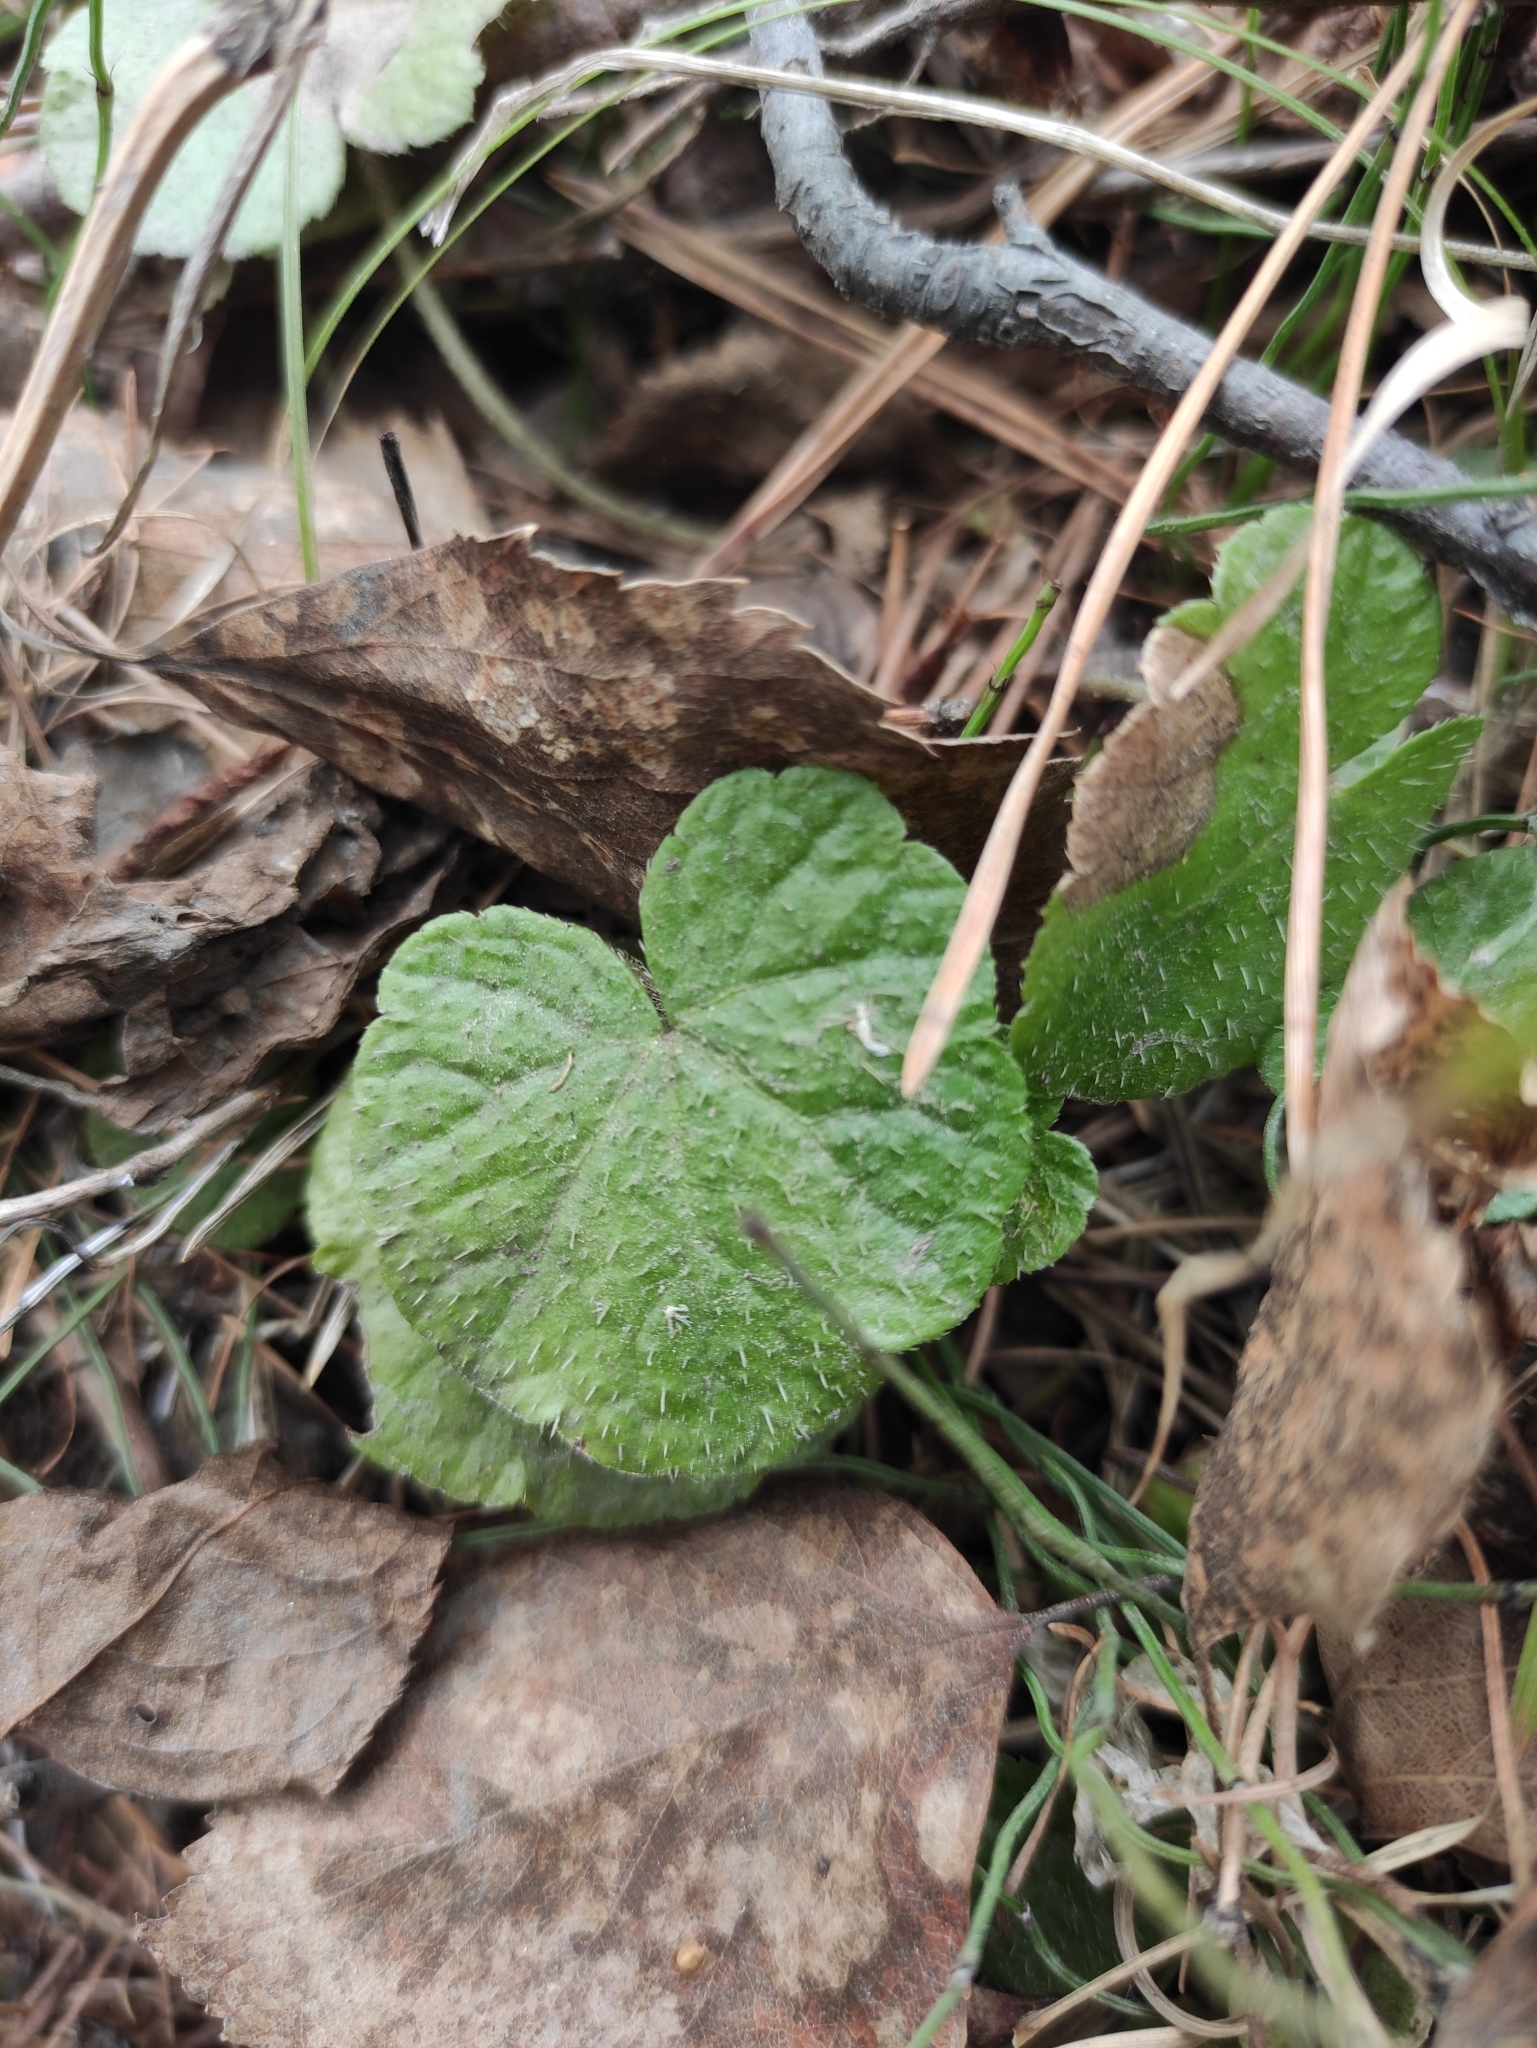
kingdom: Plantae
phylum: Tracheophyta
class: Magnoliopsida
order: Saxifragales
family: Saxifragaceae
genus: Mitella
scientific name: Mitella nuda
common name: Bare-stemmed bishop's-cap
